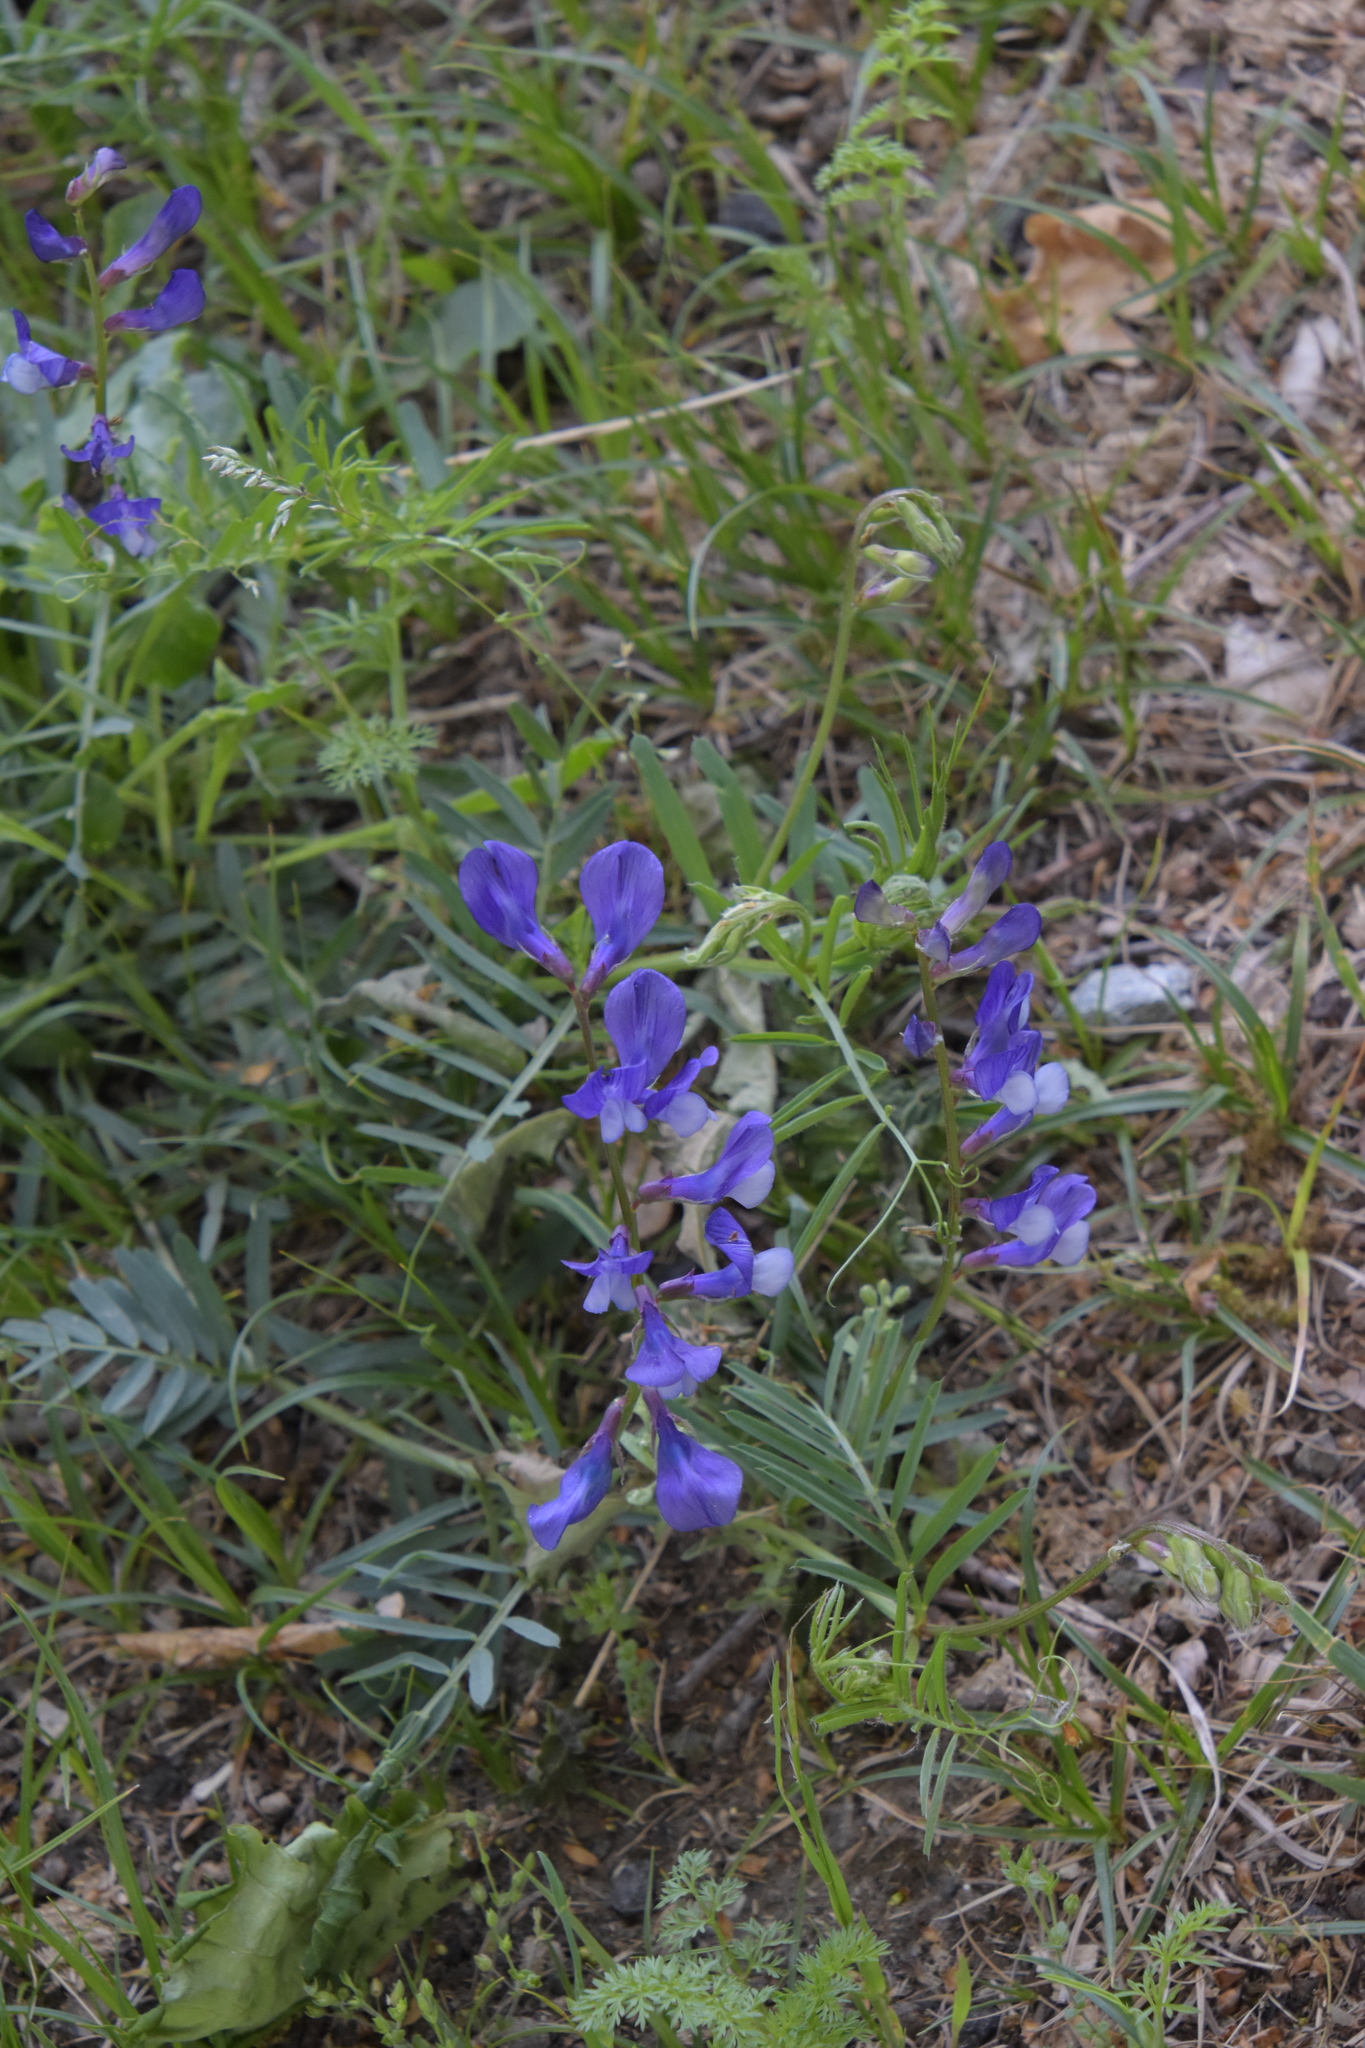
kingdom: Plantae
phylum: Tracheophyta
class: Magnoliopsida
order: Fabales
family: Fabaceae
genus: Vicia
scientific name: Vicia onobrychioides
